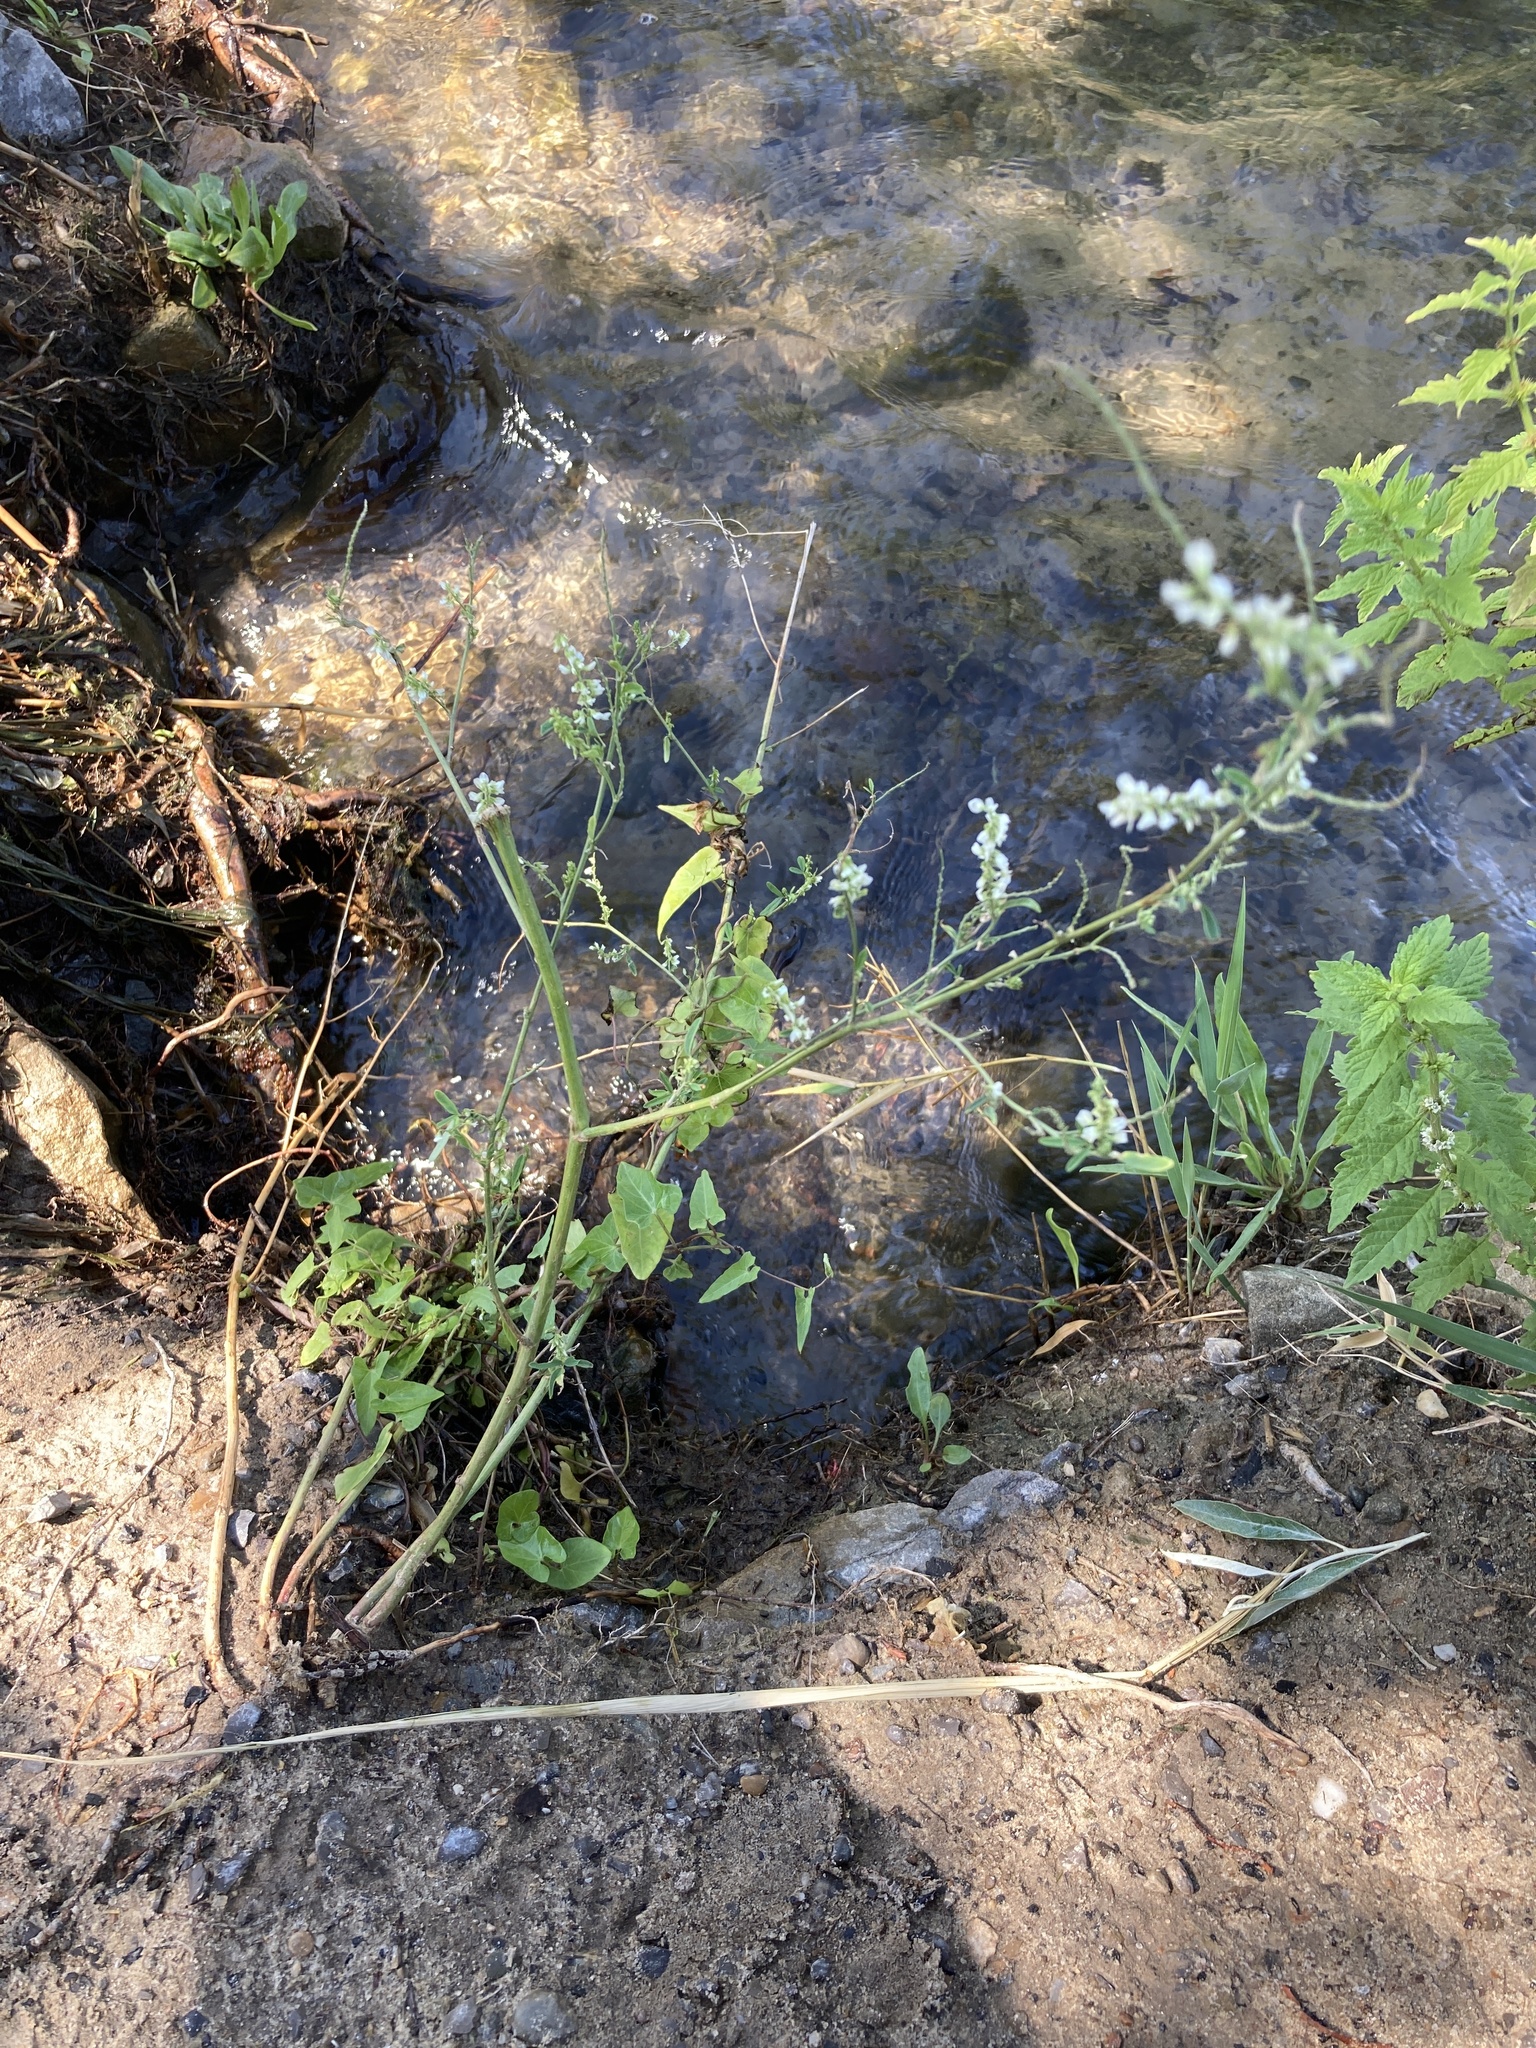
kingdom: Plantae
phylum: Tracheophyta
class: Magnoliopsida
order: Fabales
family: Fabaceae
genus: Melilotus
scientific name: Melilotus albus
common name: White melilot
